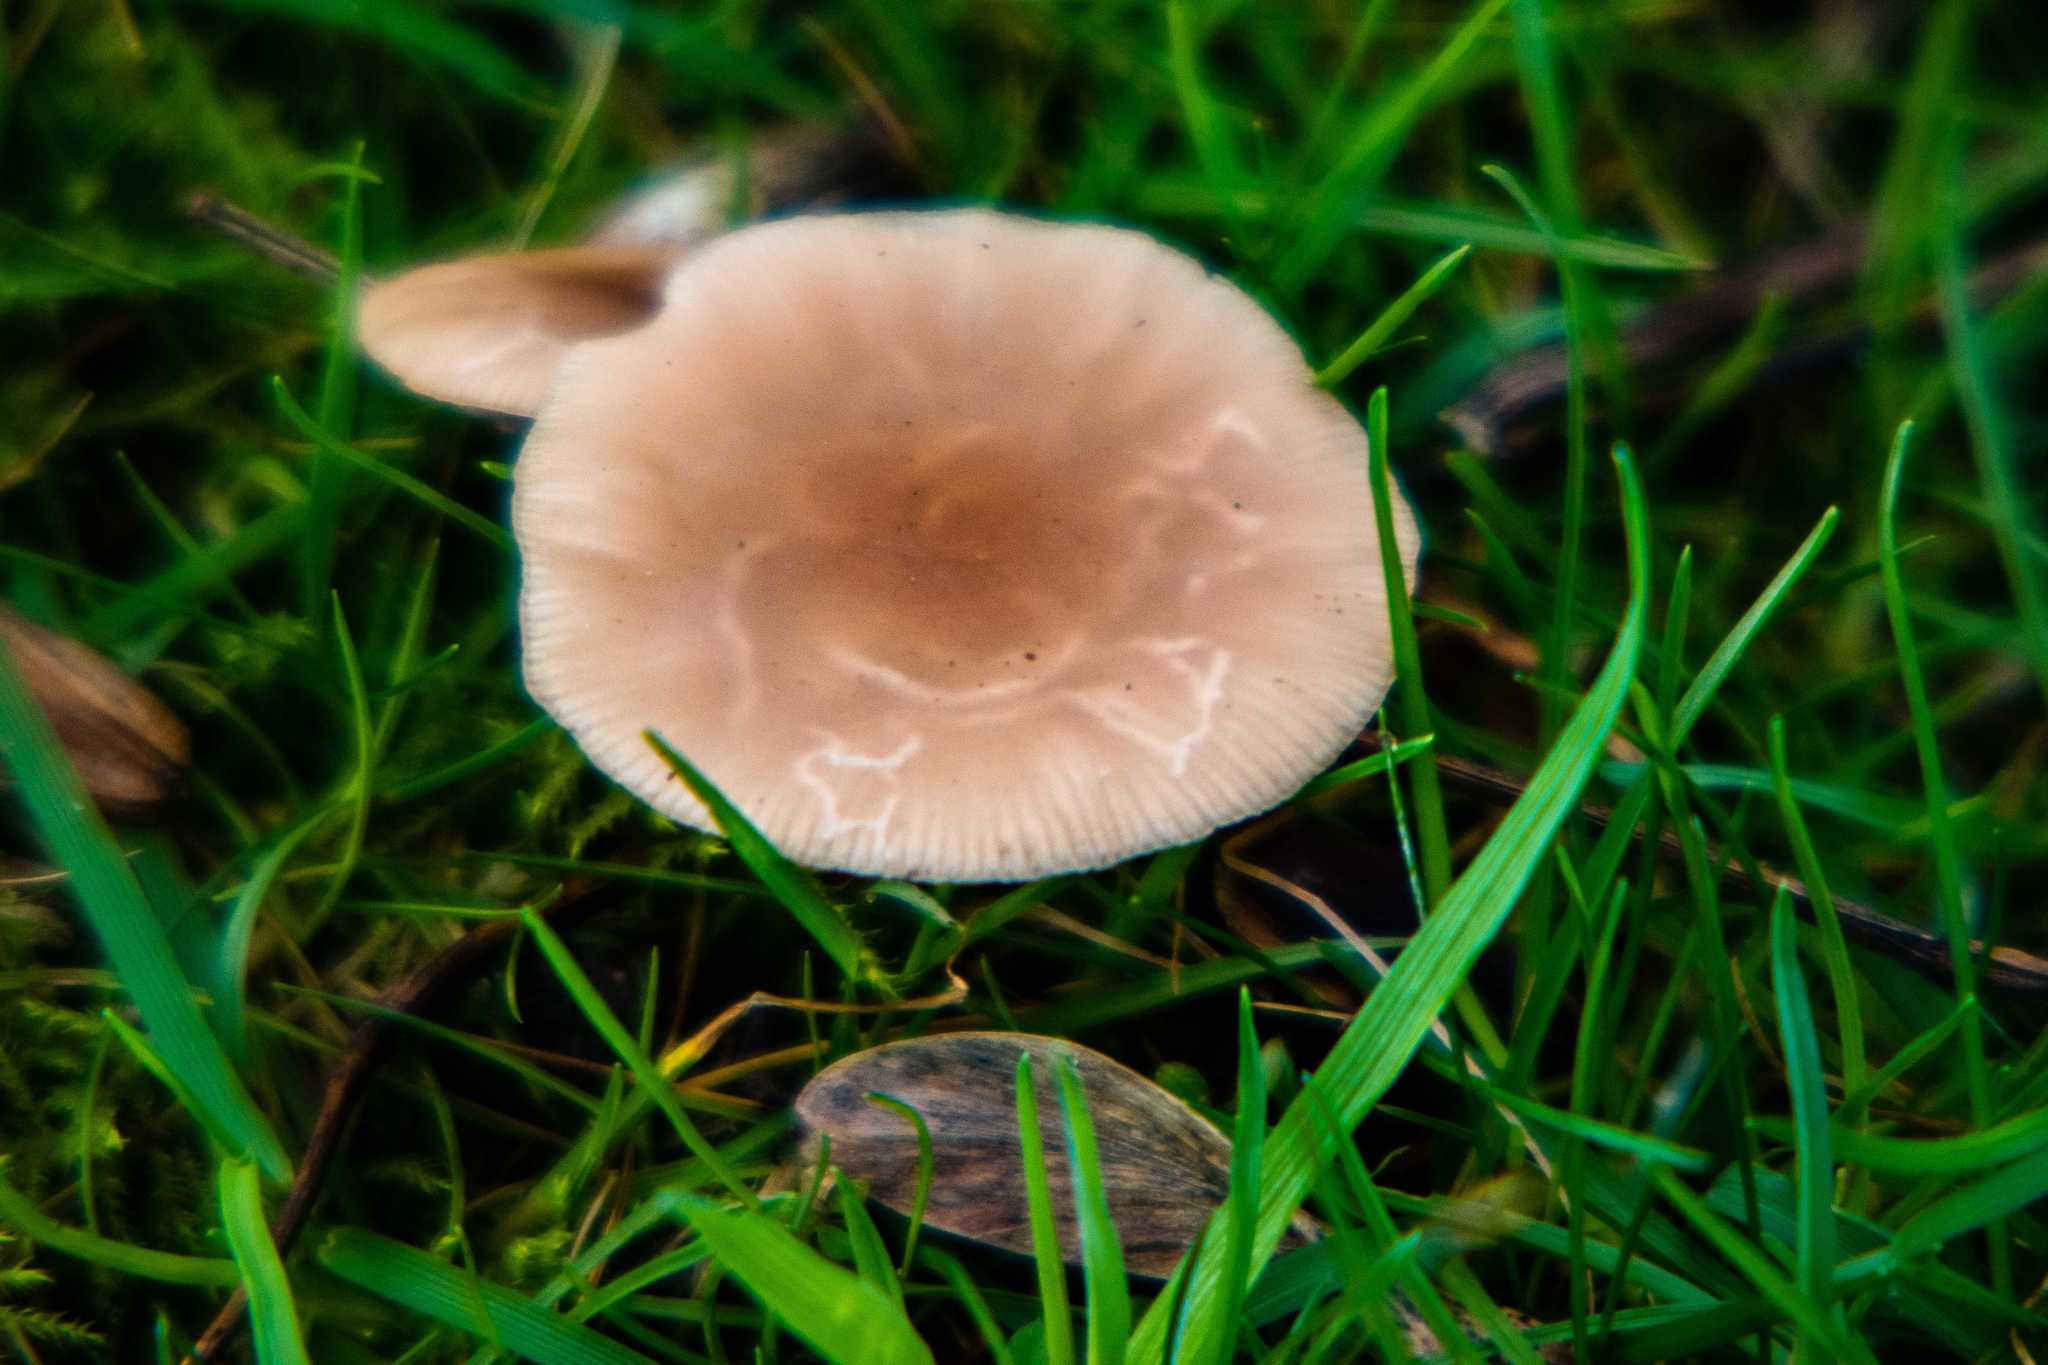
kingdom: Fungi
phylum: Basidiomycota
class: Agaricomycetes
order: Agaricales
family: Hydnangiaceae
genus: Laccaria
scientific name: Laccaria laccata
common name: Deceiver
